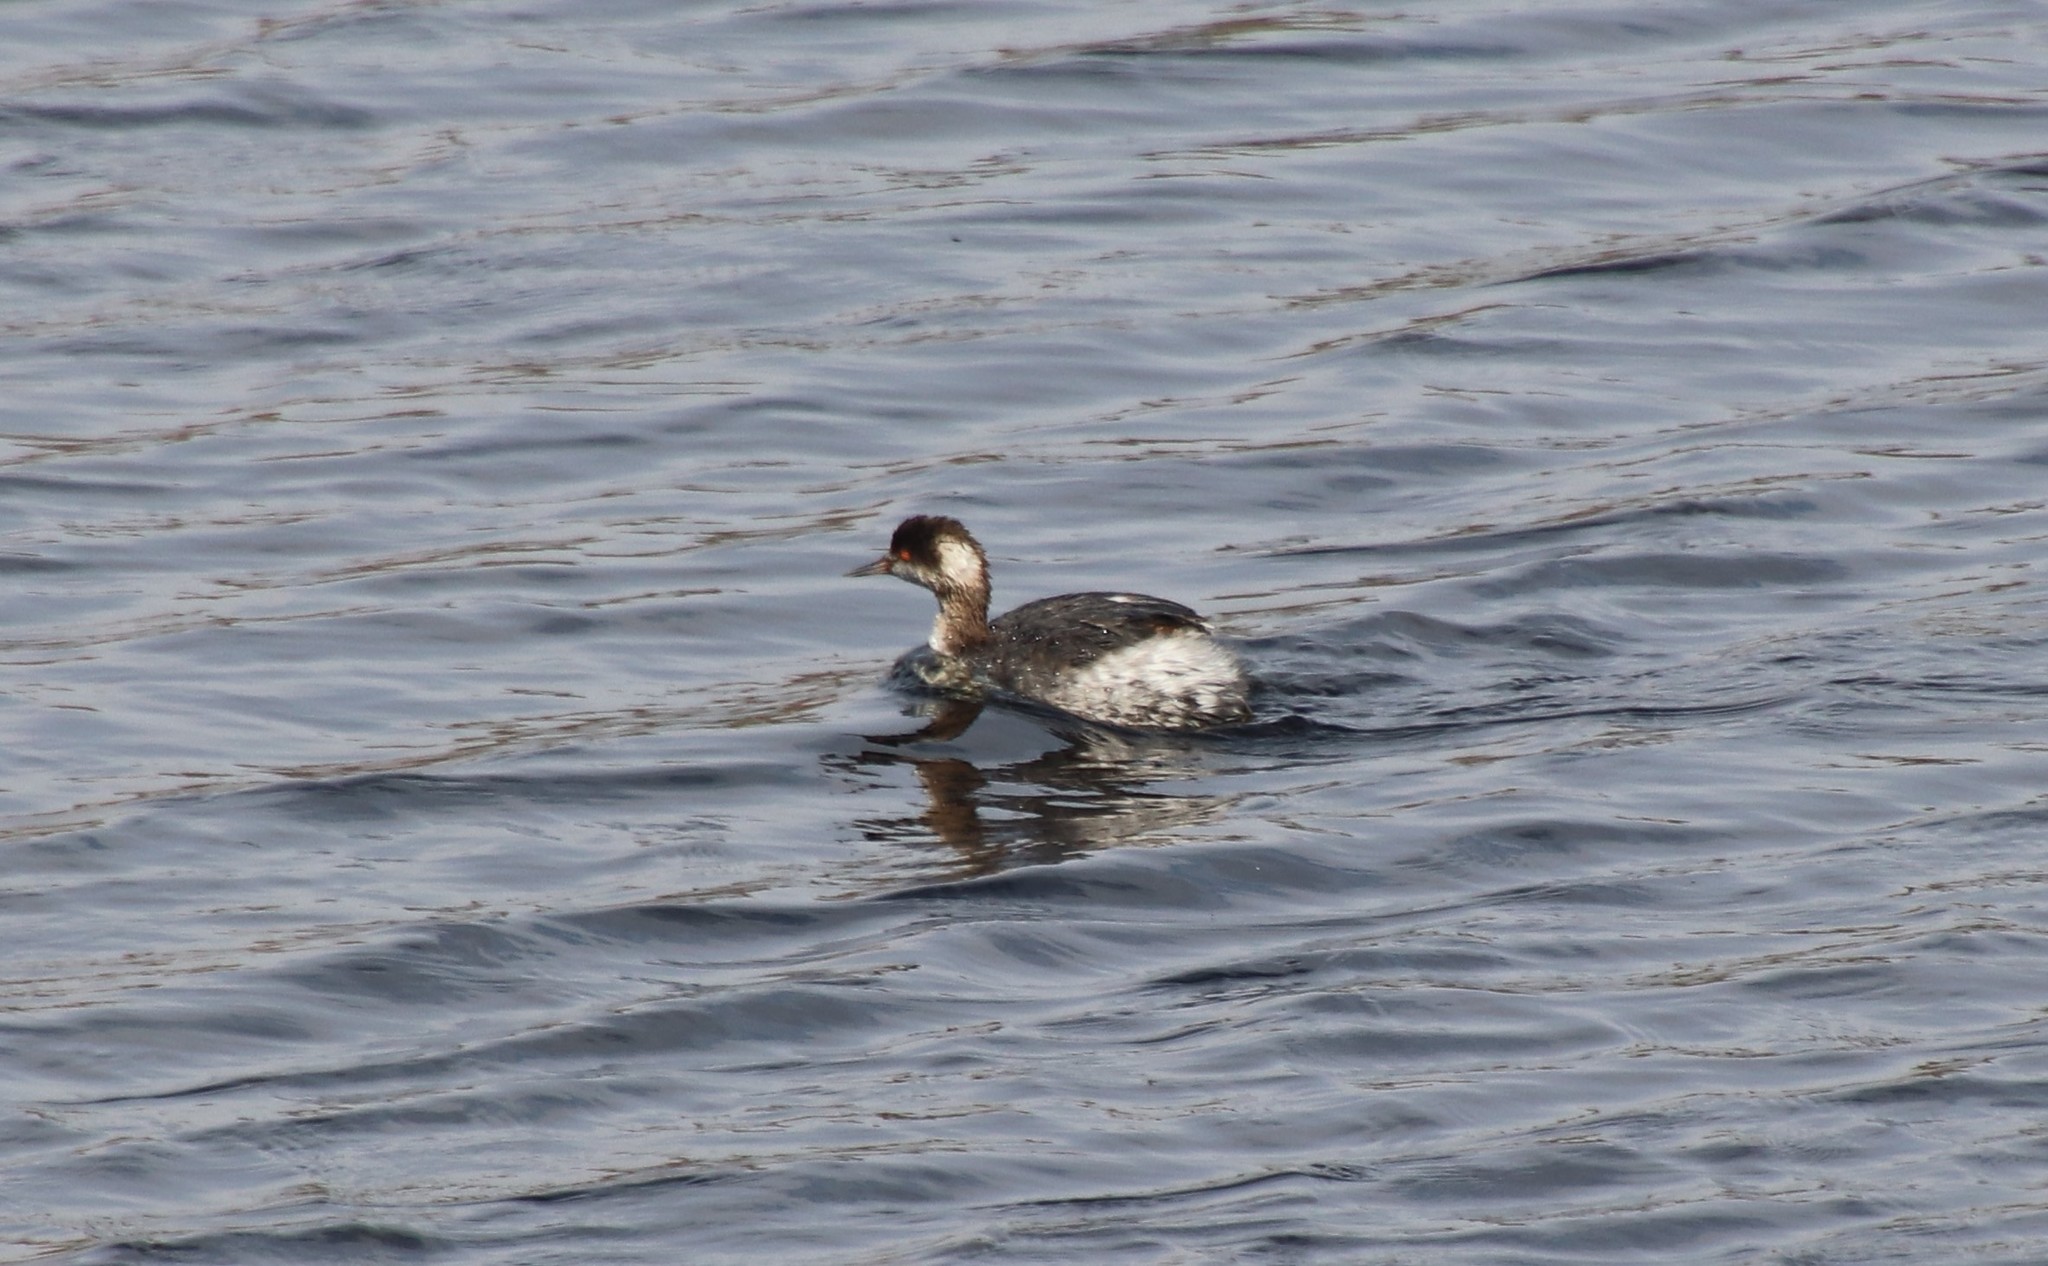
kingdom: Animalia
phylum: Chordata
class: Aves
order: Podicipediformes
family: Podicipedidae
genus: Podiceps
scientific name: Podiceps nigricollis
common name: Black-necked grebe
